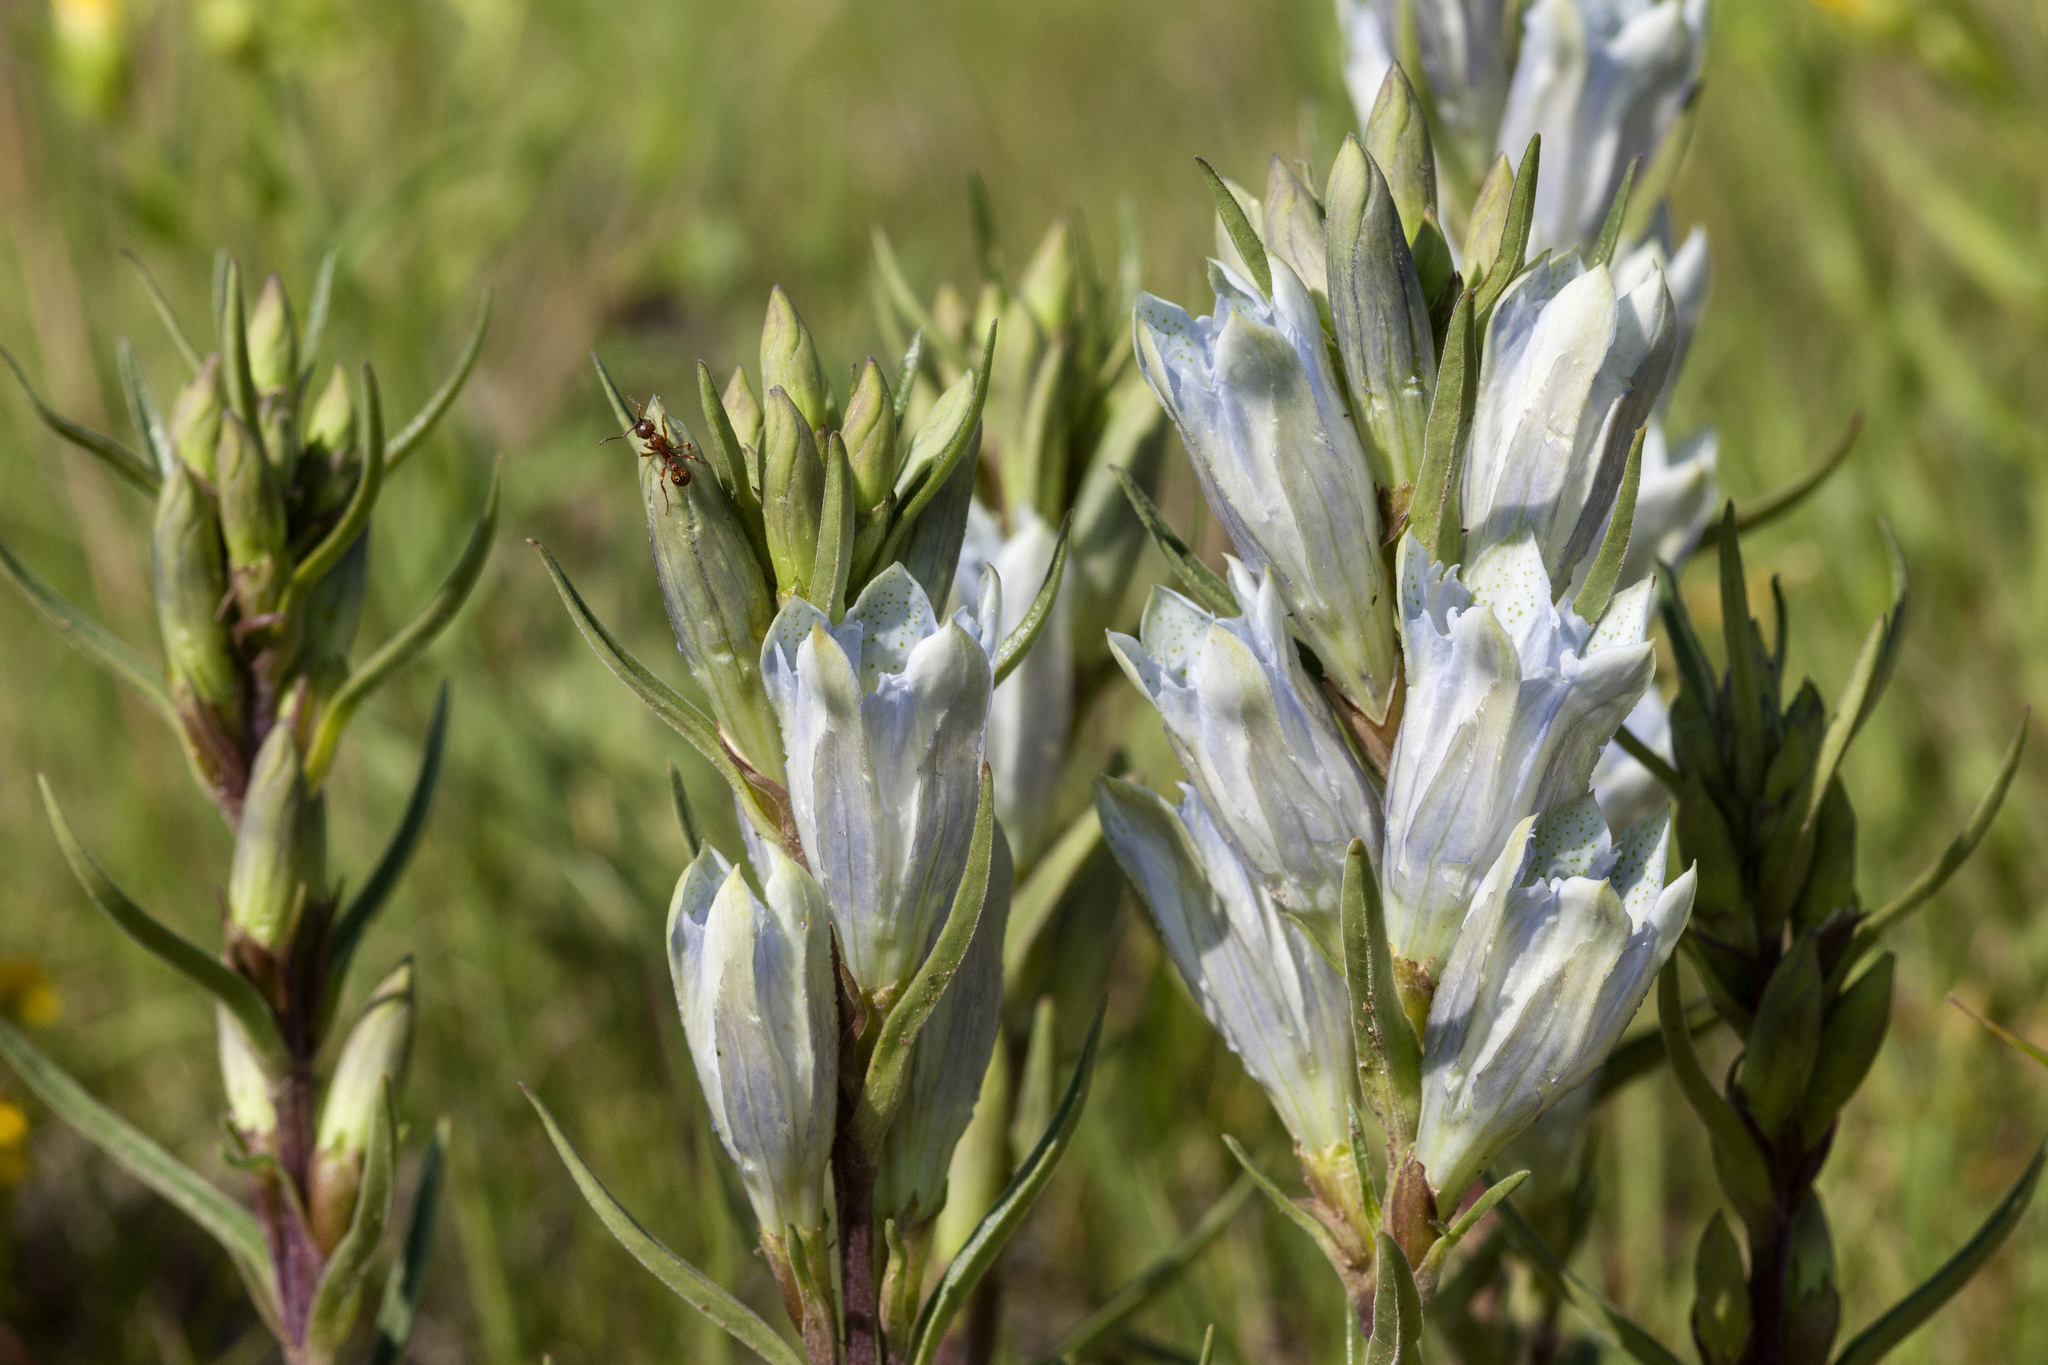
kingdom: Plantae
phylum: Tracheophyta
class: Magnoliopsida
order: Gentianales
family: Gentianaceae
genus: Gentiana
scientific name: Gentiana affinis
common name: Rocky mountain gentian
